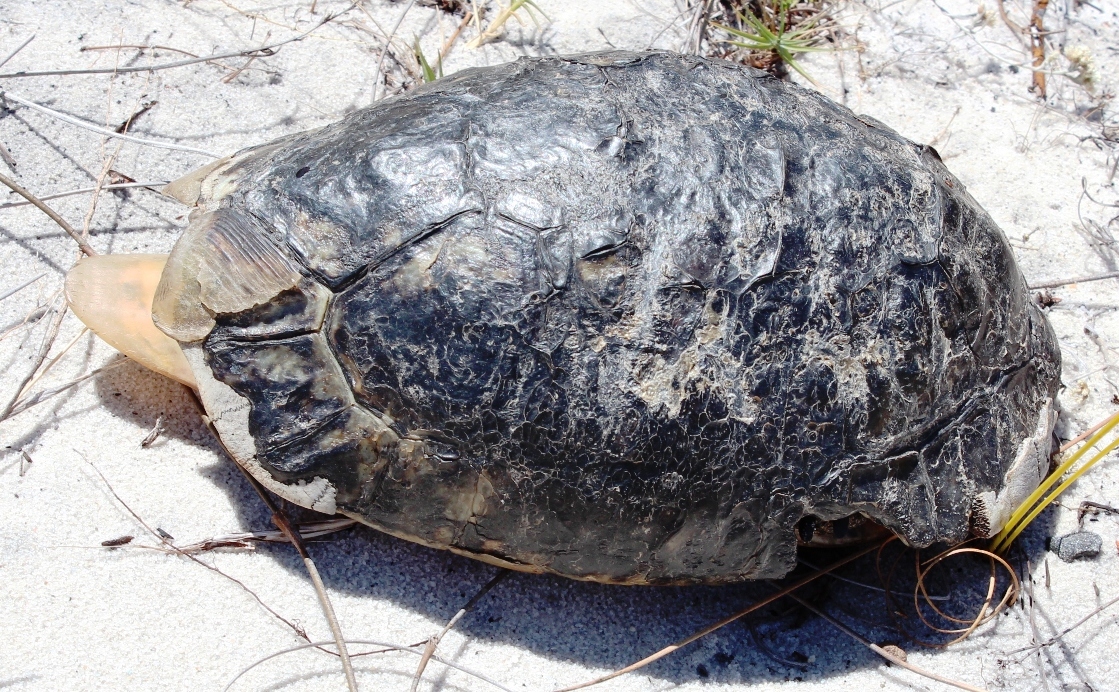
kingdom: Animalia
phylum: Chordata
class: Testudines
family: Testudinidae
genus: Chersina
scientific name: Chersina angulata
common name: South african bowsprit tortoise
